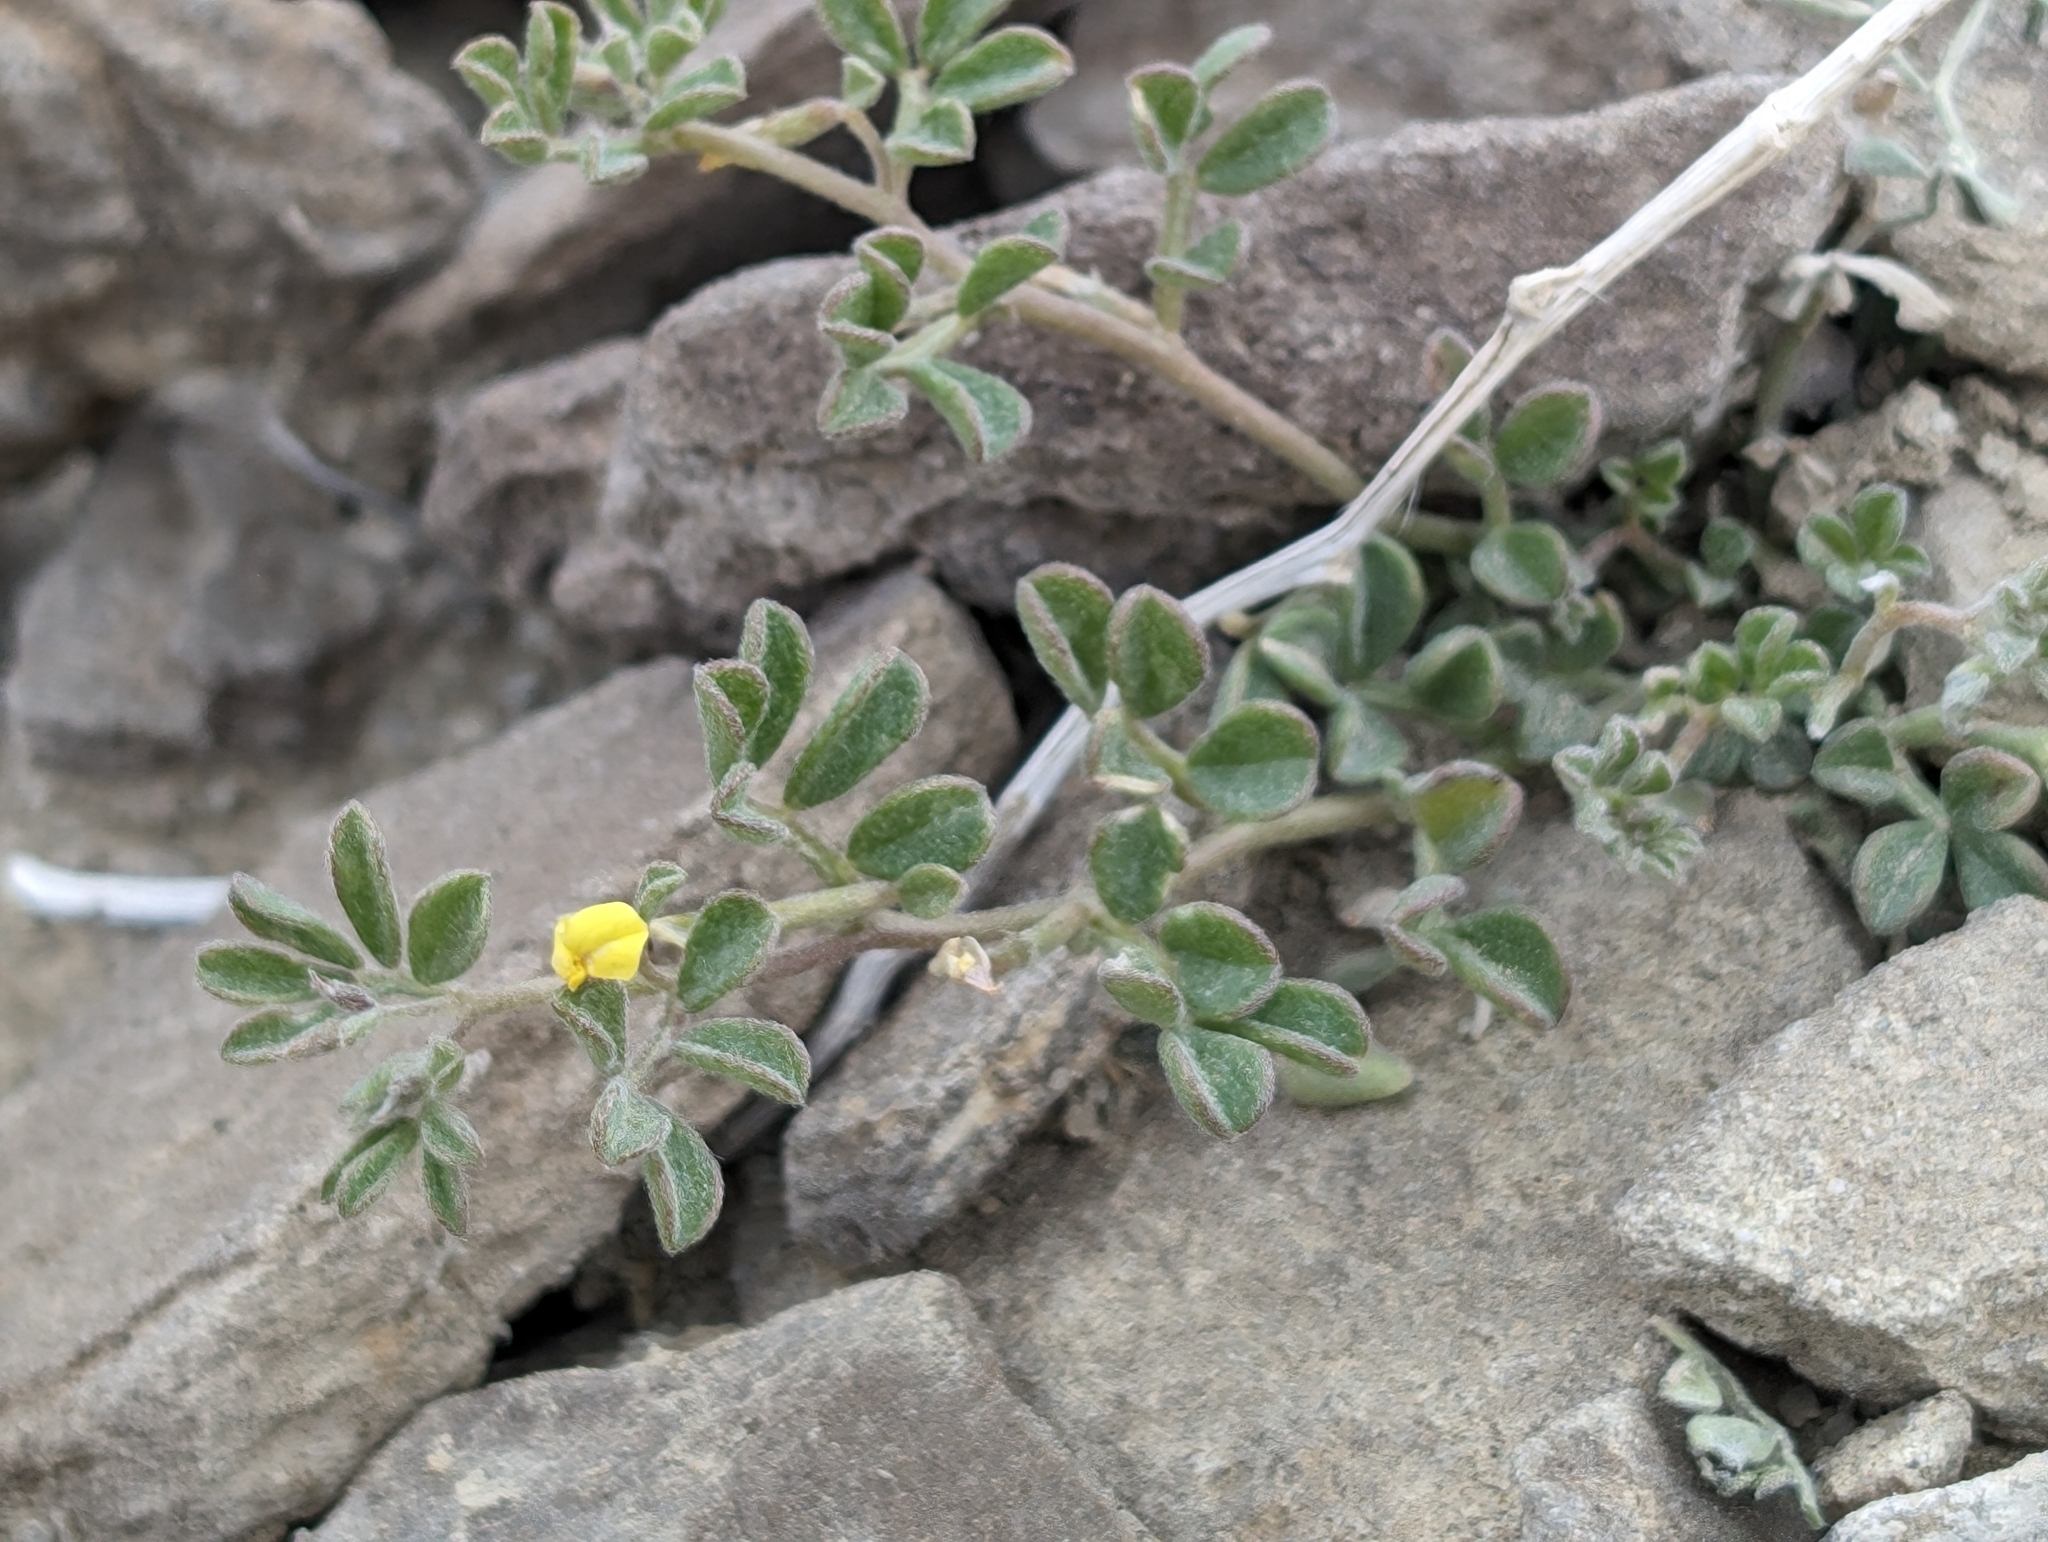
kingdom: Plantae
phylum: Tracheophyta
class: Magnoliopsida
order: Fabales
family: Fabaceae
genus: Acmispon
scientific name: Acmispon strigosus
